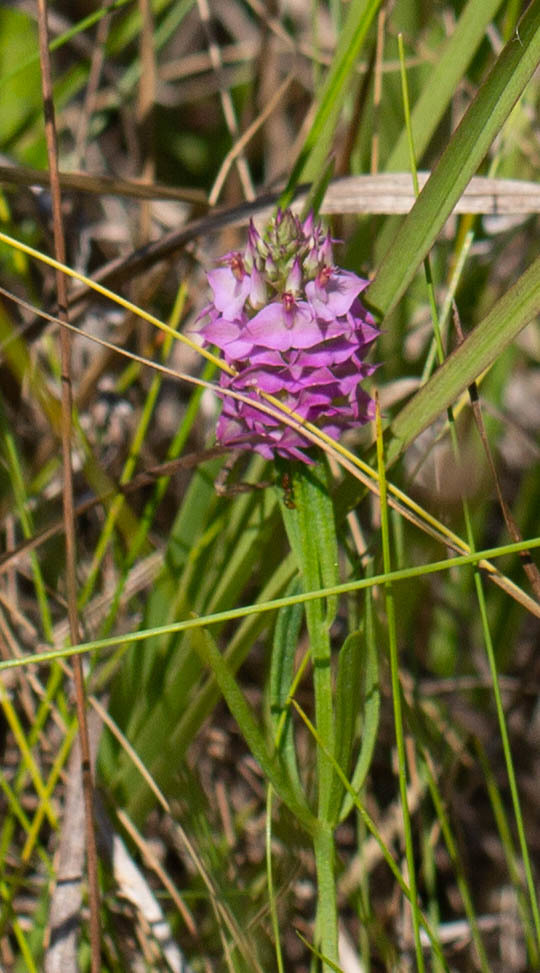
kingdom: Plantae
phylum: Tracheophyta
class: Magnoliopsida
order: Fabales
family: Polygalaceae
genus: Polygala
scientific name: Polygala cruciata
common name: Drumheads
